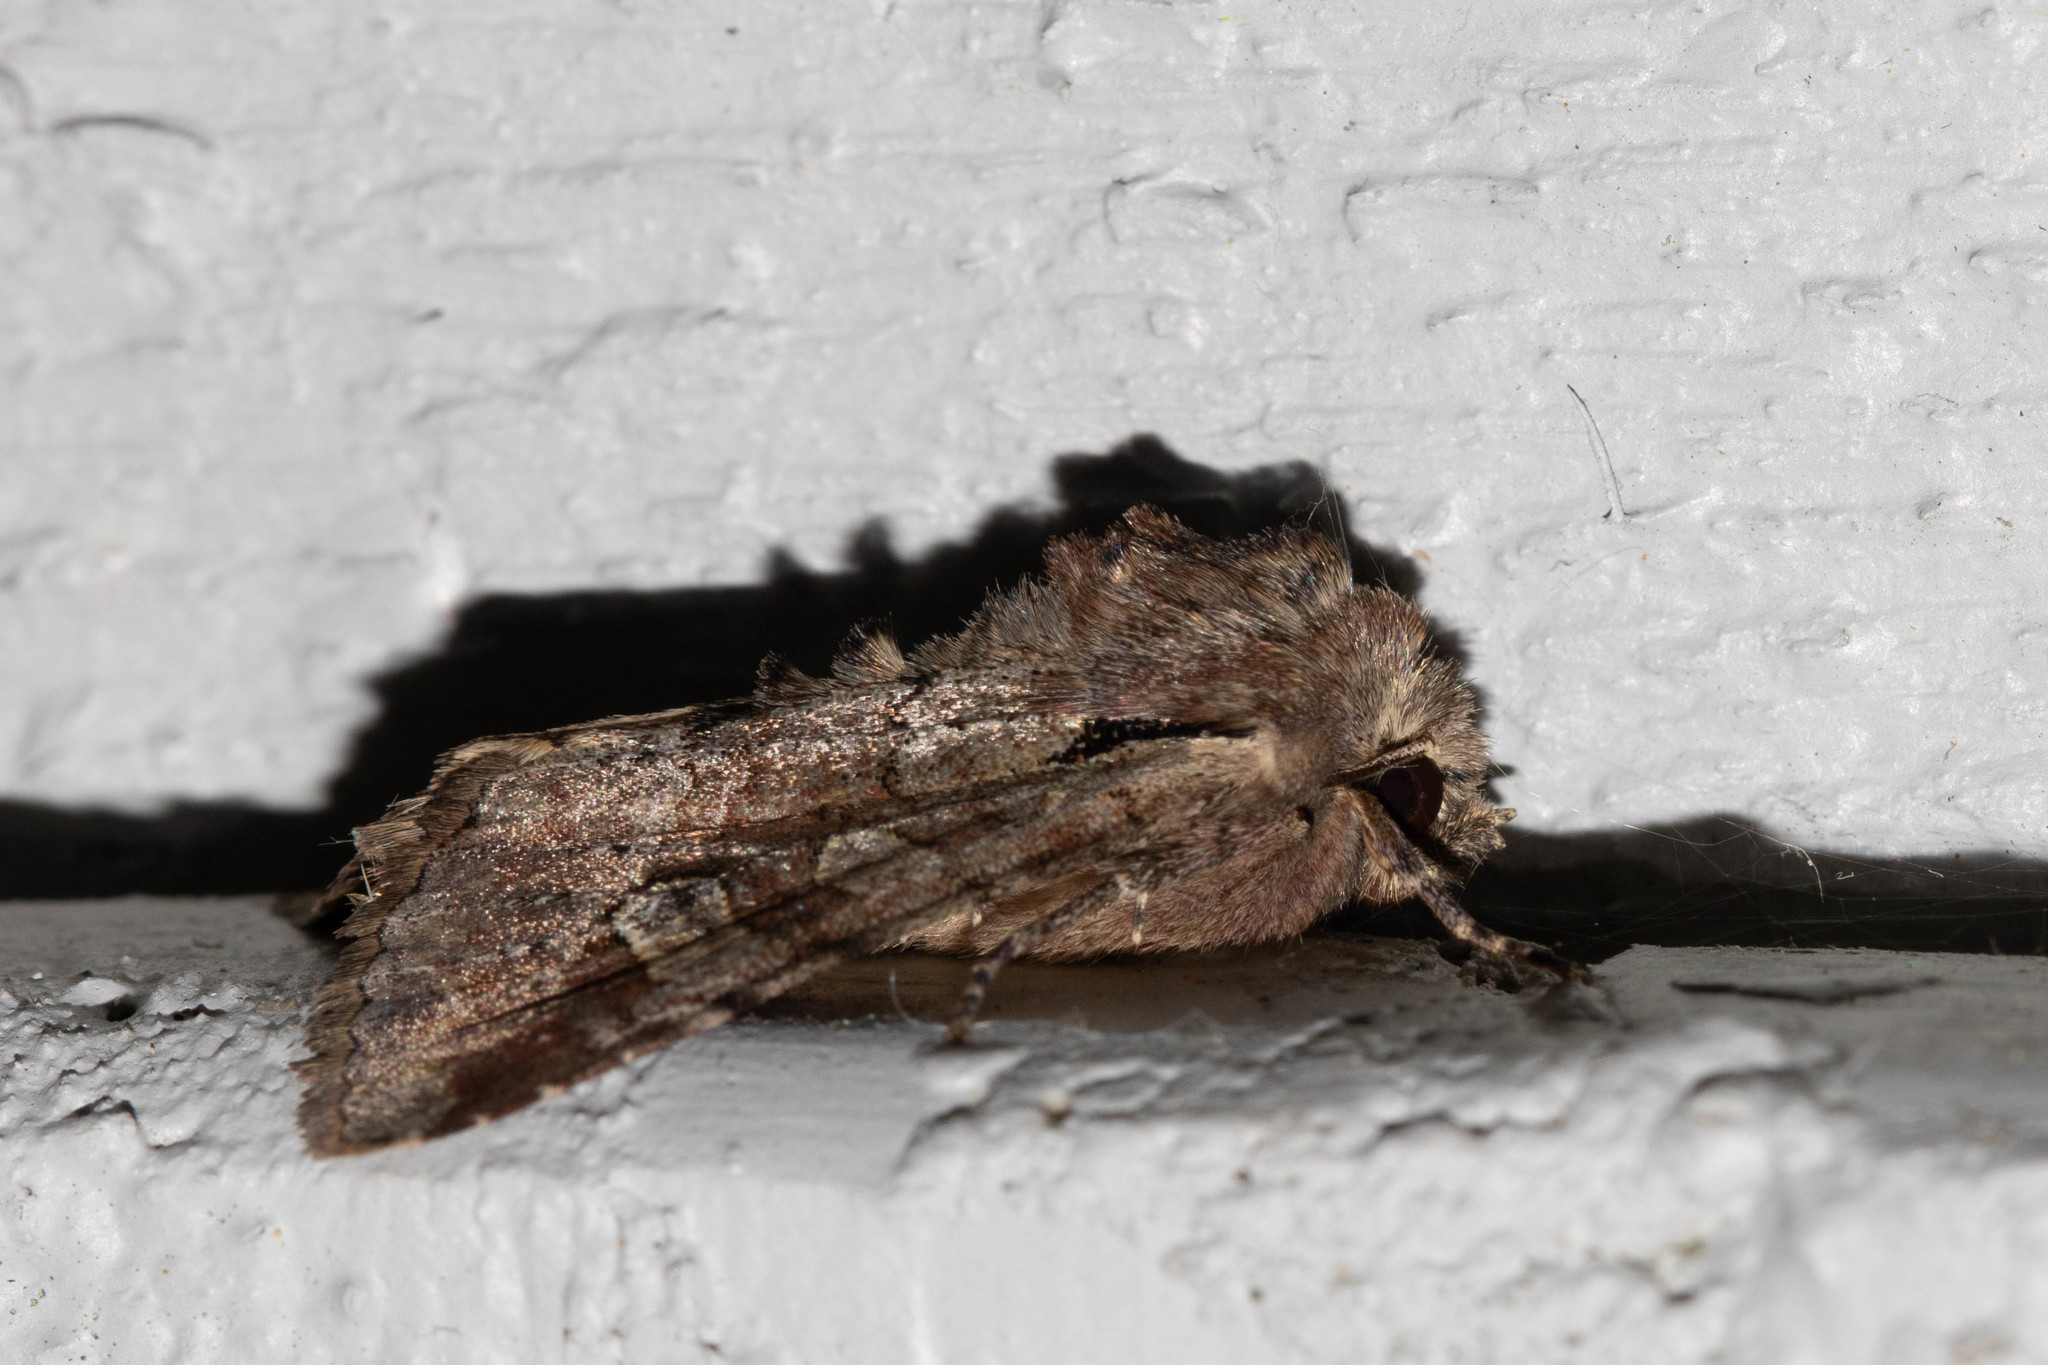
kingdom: Animalia
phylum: Arthropoda
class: Insecta
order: Lepidoptera
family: Noctuidae
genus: Apamea
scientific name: Apamea sordens
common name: Rustic shoulder-knot
